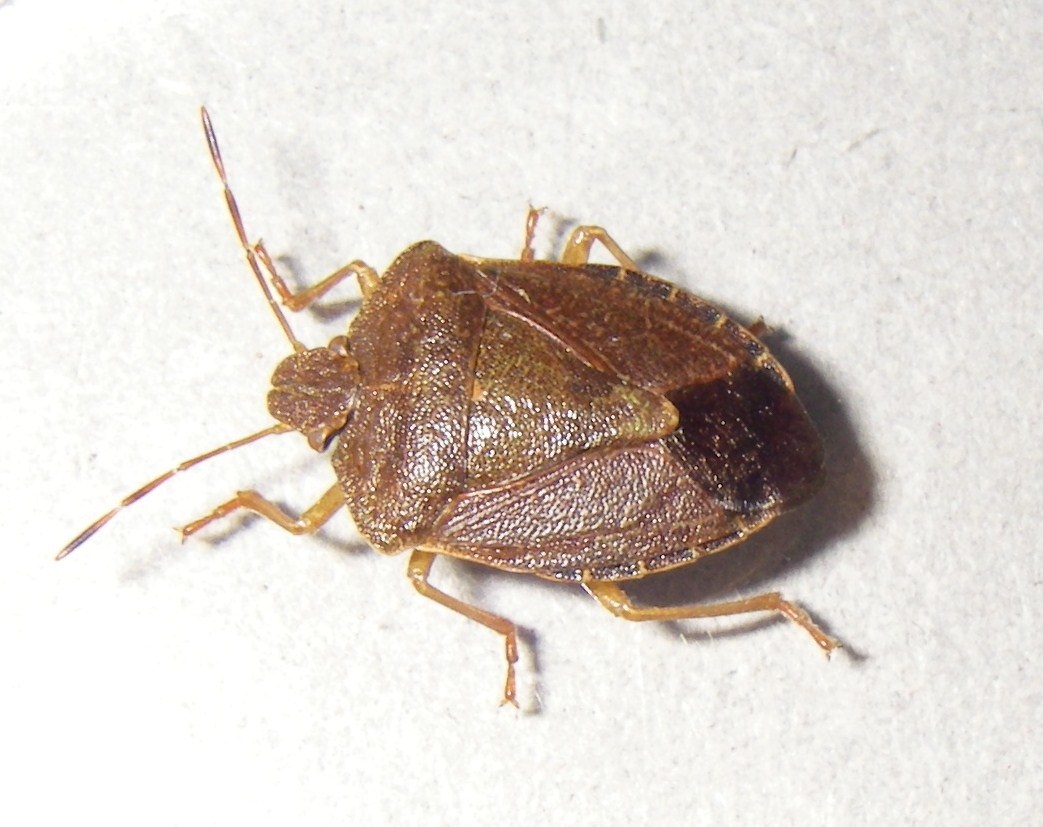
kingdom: Animalia
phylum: Arthropoda
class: Insecta
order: Hemiptera
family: Pentatomidae
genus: Palomena
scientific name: Palomena prasina
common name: Green shieldbug
